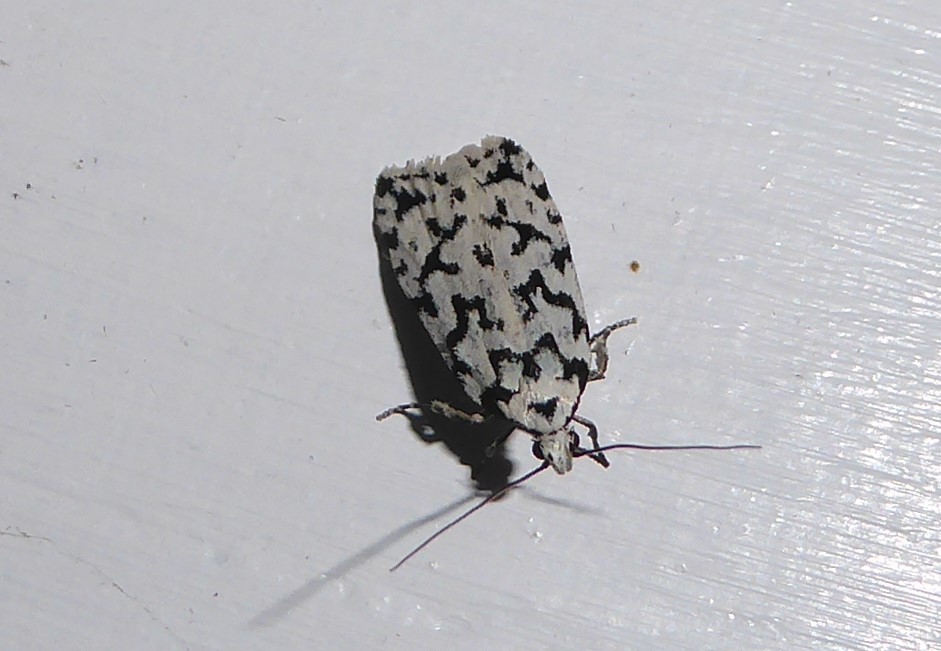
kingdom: Animalia
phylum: Arthropoda
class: Insecta
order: Lepidoptera
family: Oecophoridae
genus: Izatha
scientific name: Izatha katadiktya
